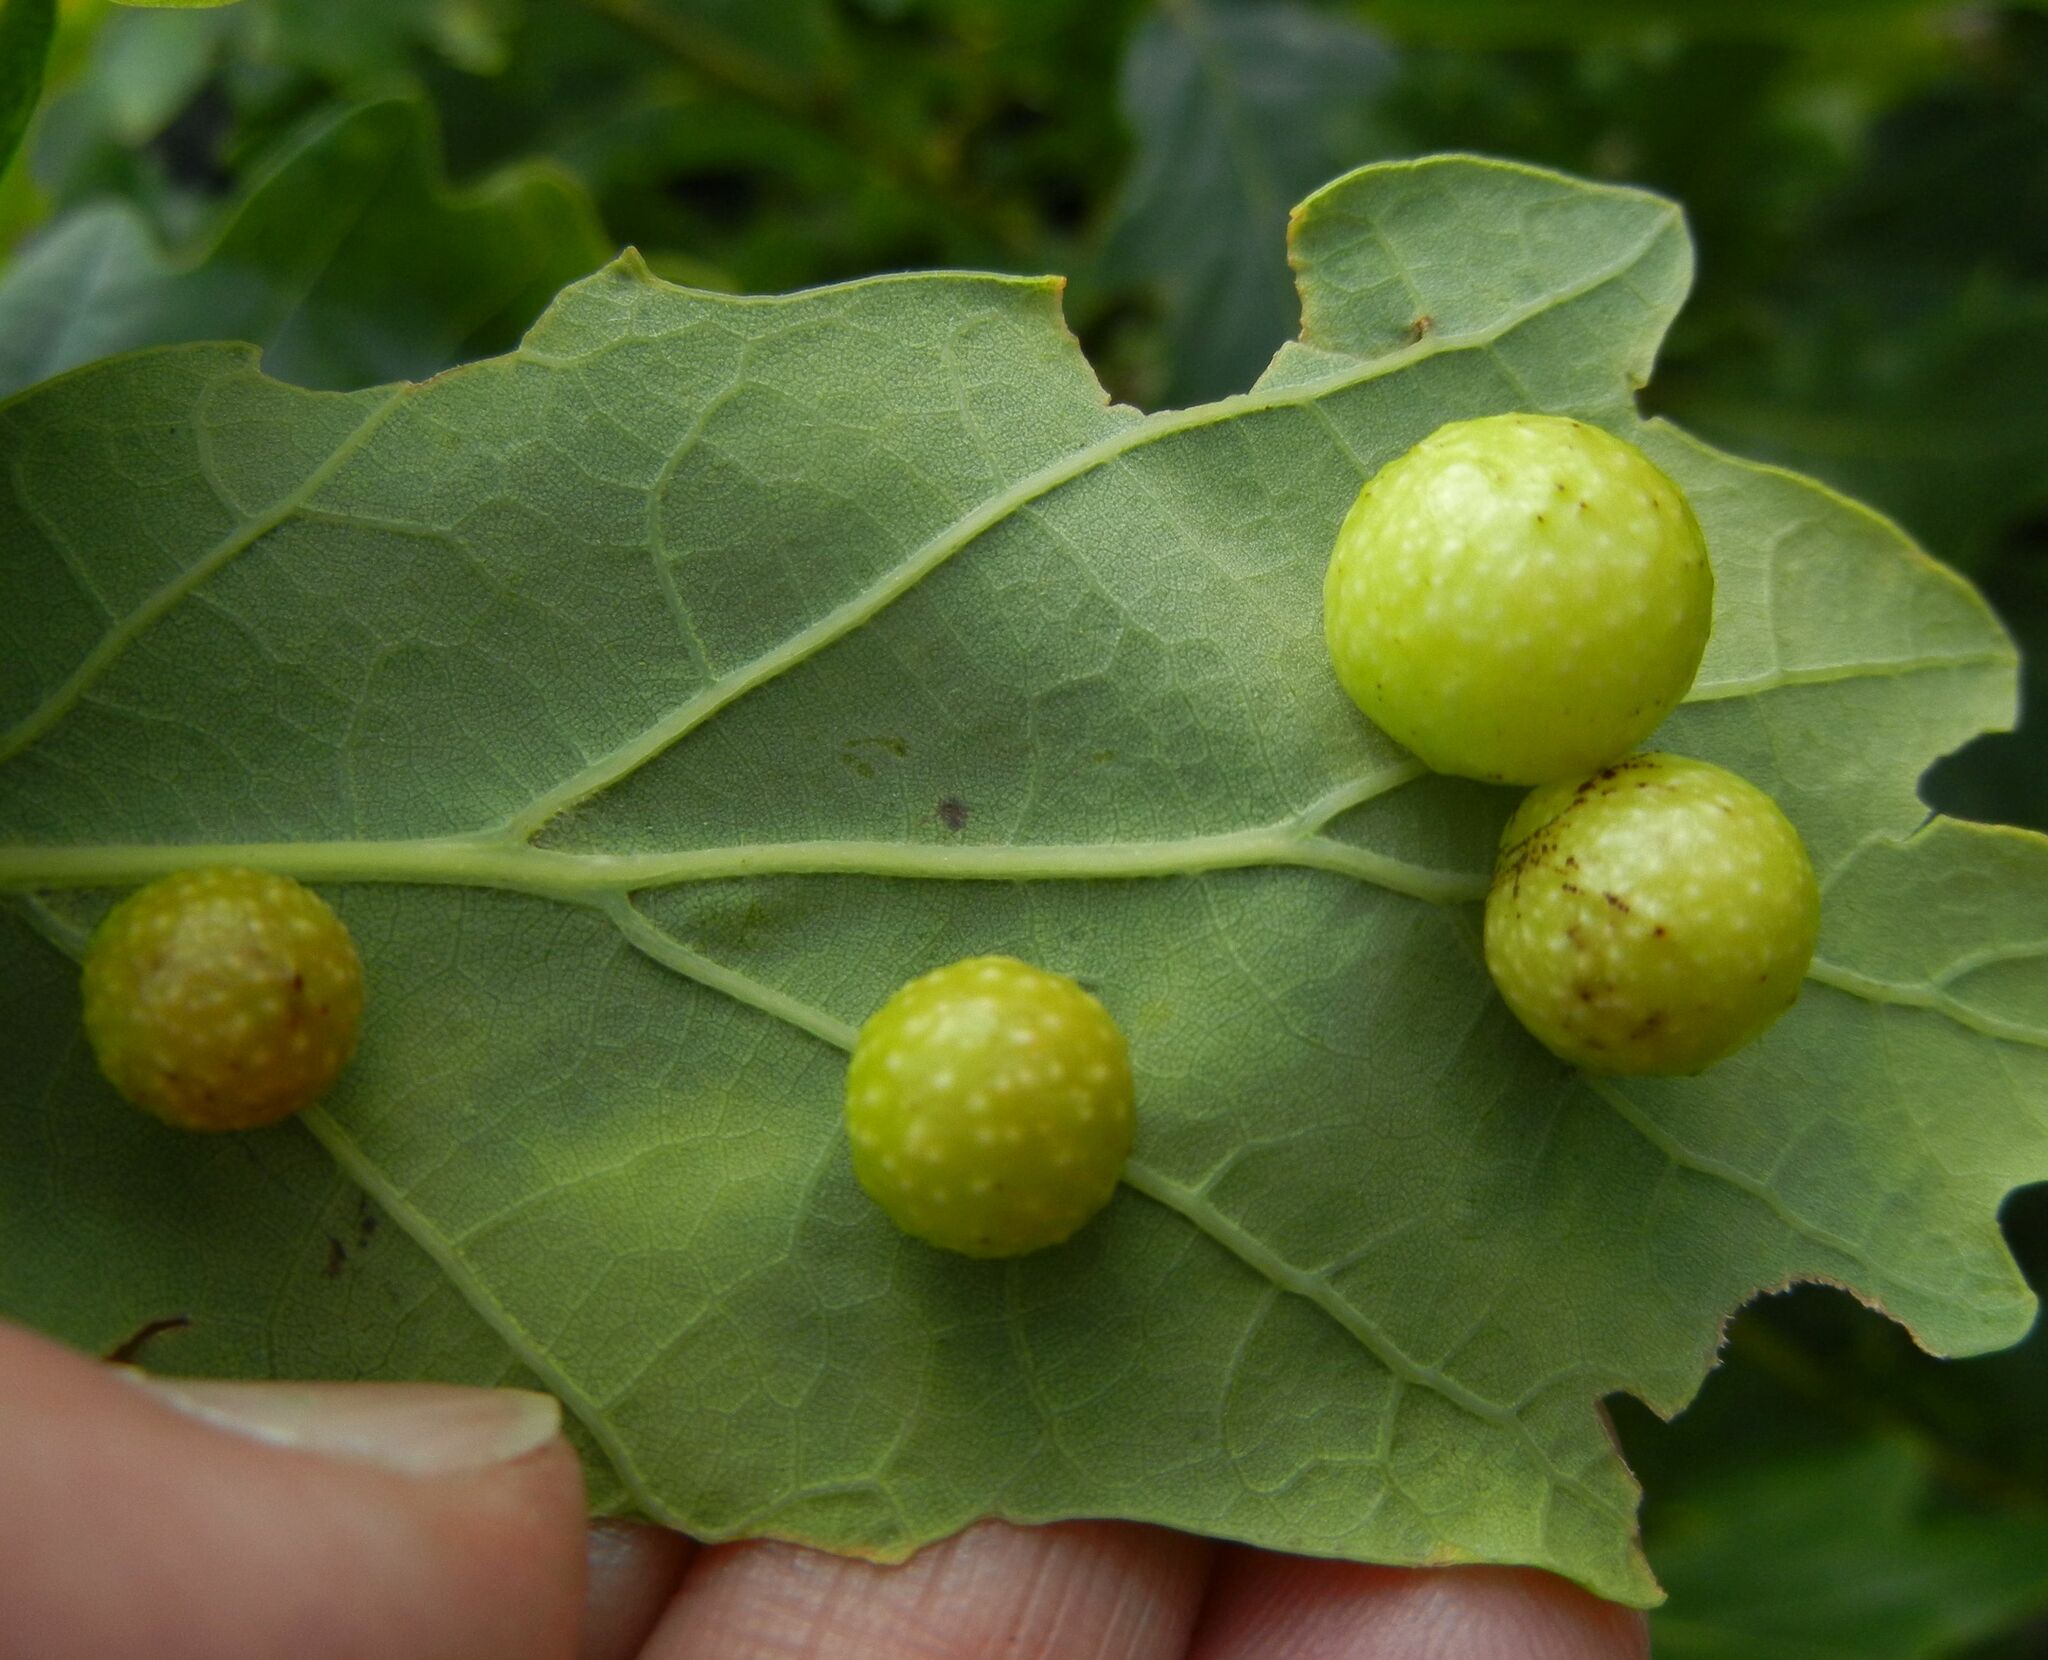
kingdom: Animalia
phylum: Arthropoda
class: Insecta
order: Hymenoptera
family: Cynipidae
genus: Cynips
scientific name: Cynips quercusfolii
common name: Cherry gall
